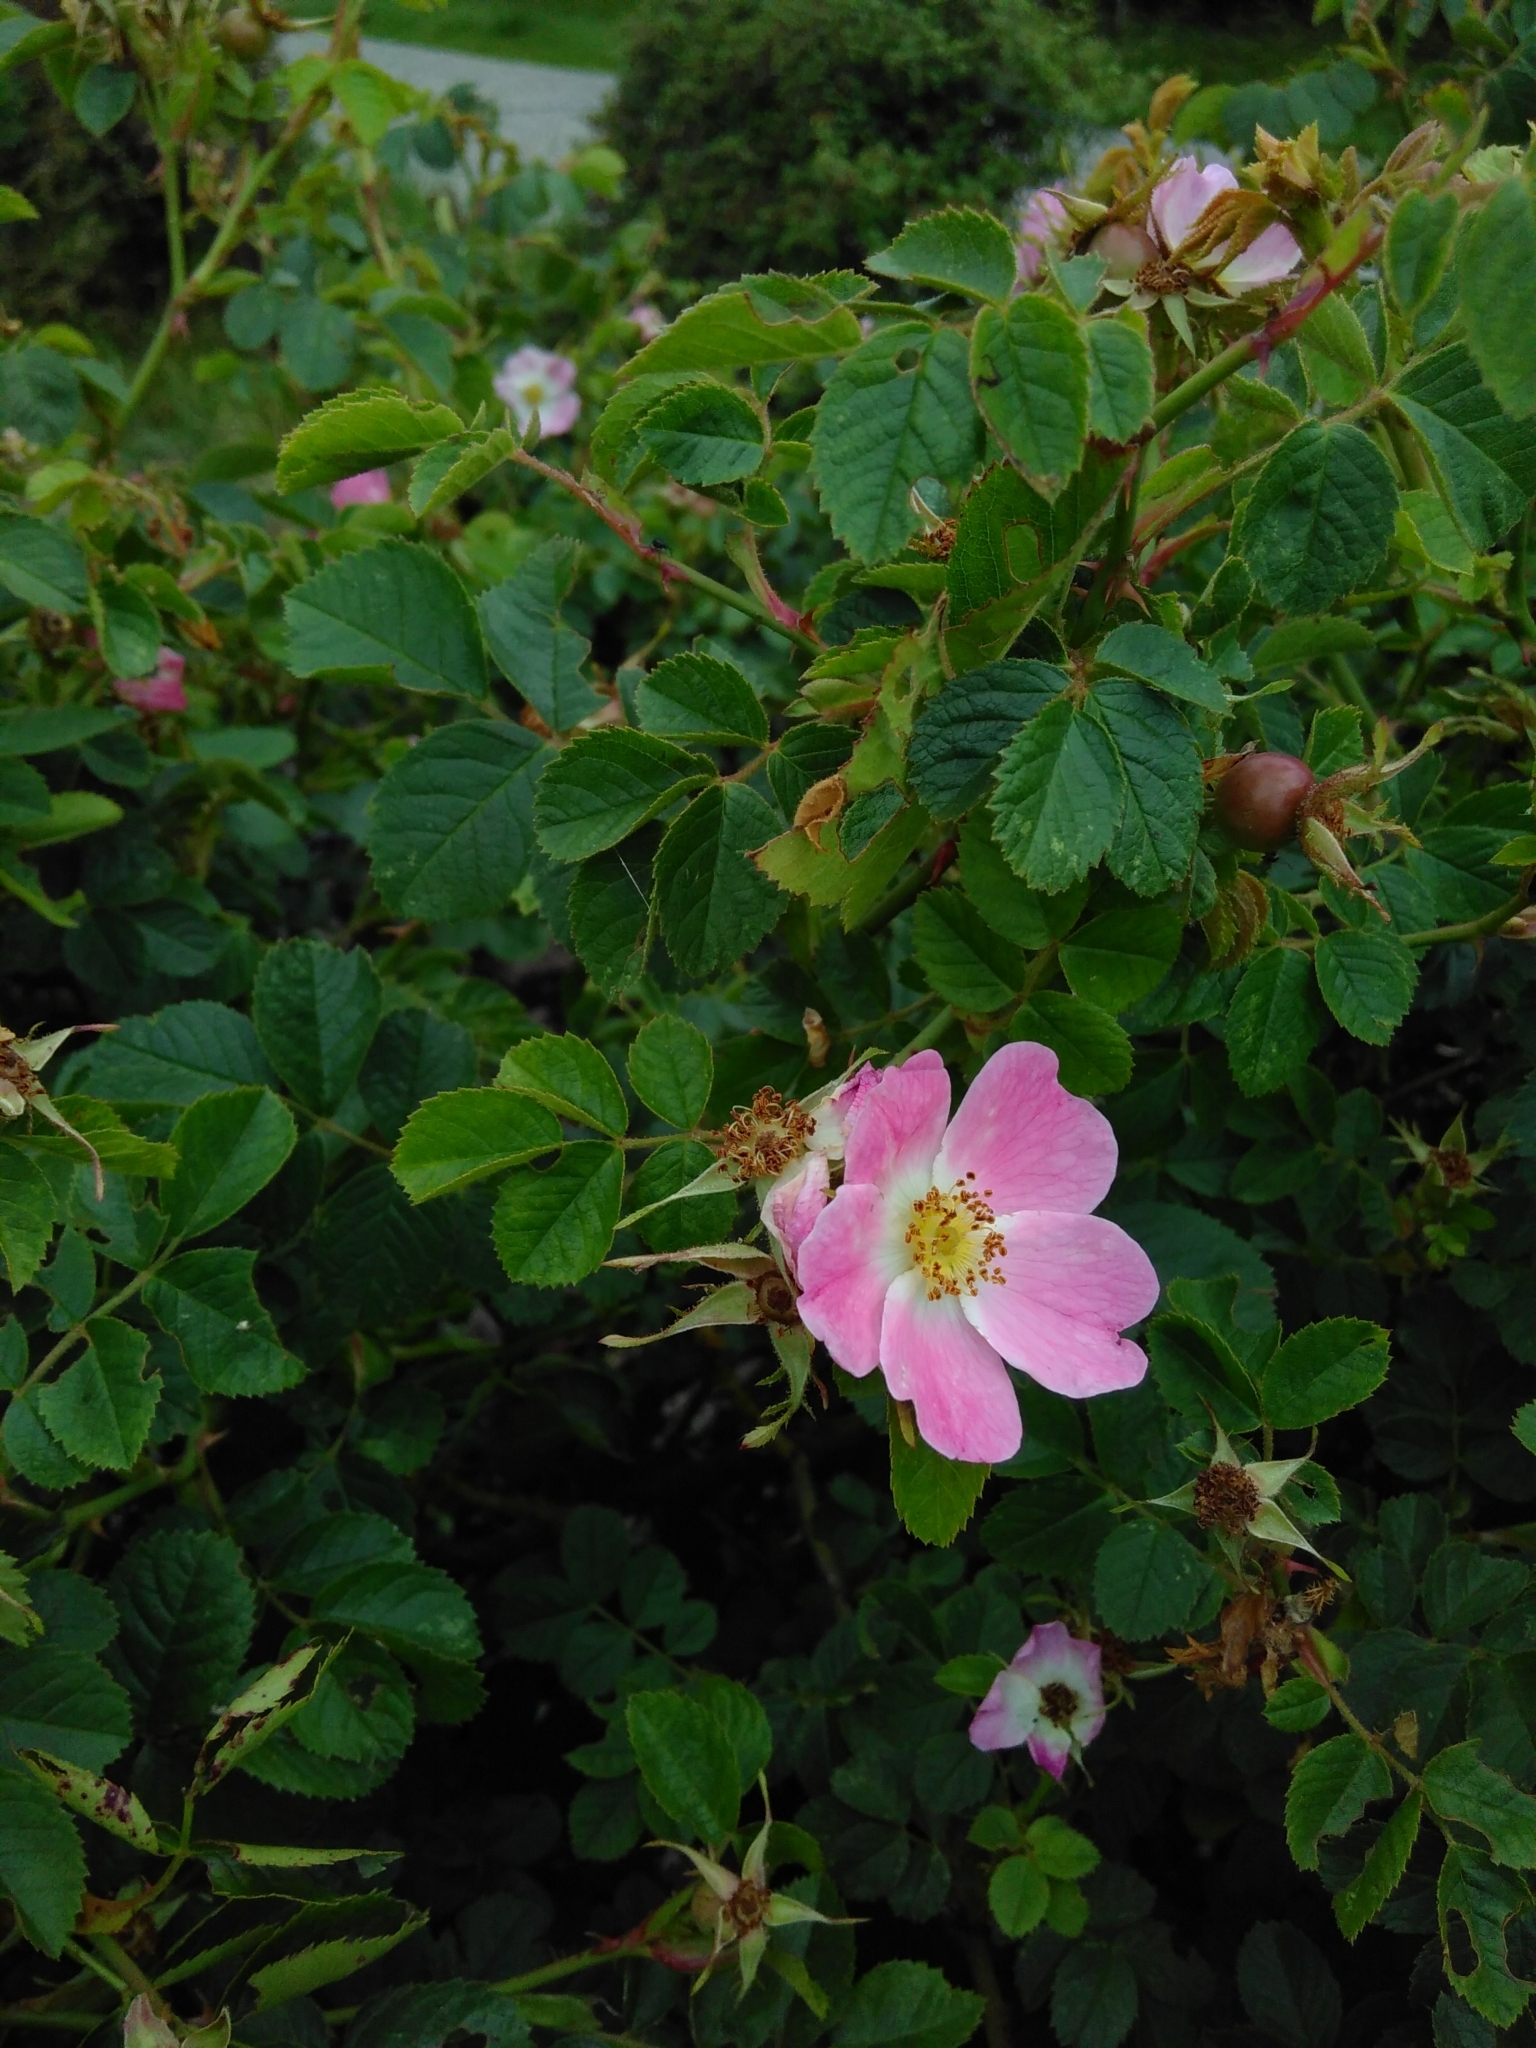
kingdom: Plantae
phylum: Tracheophyta
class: Magnoliopsida
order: Rosales
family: Rosaceae
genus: Rosa
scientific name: Rosa rubiginosa
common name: Sweet-briar
